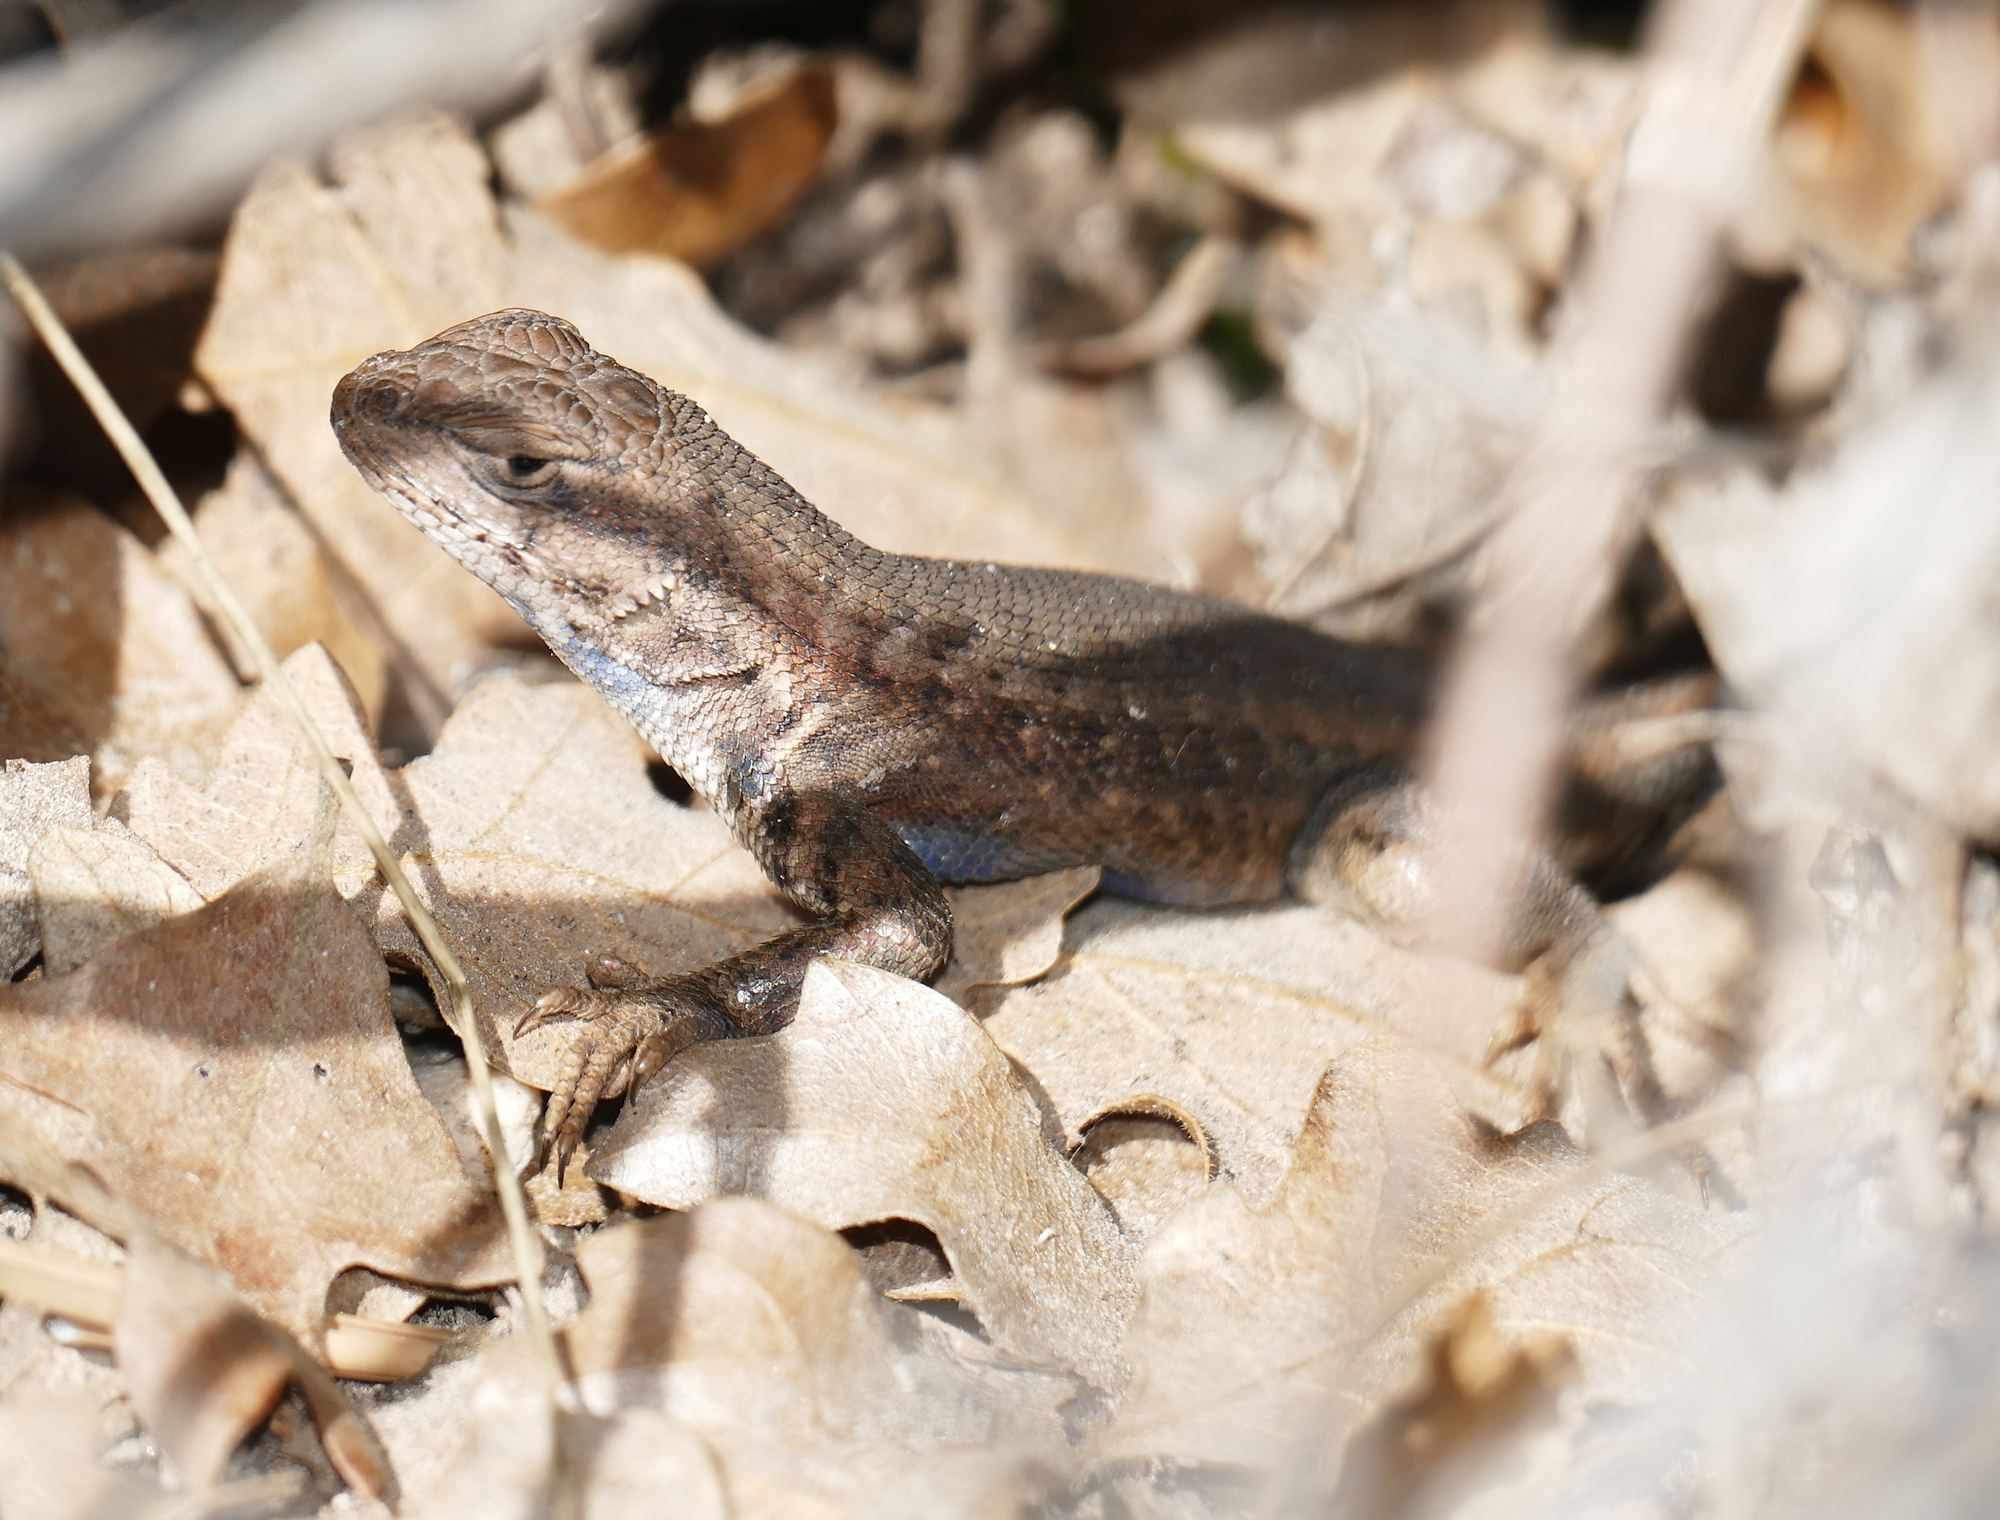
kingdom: Animalia
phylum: Chordata
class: Squamata
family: Phrynosomatidae
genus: Sceloporus
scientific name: Sceloporus tristichus
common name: Plateau fence lizard
